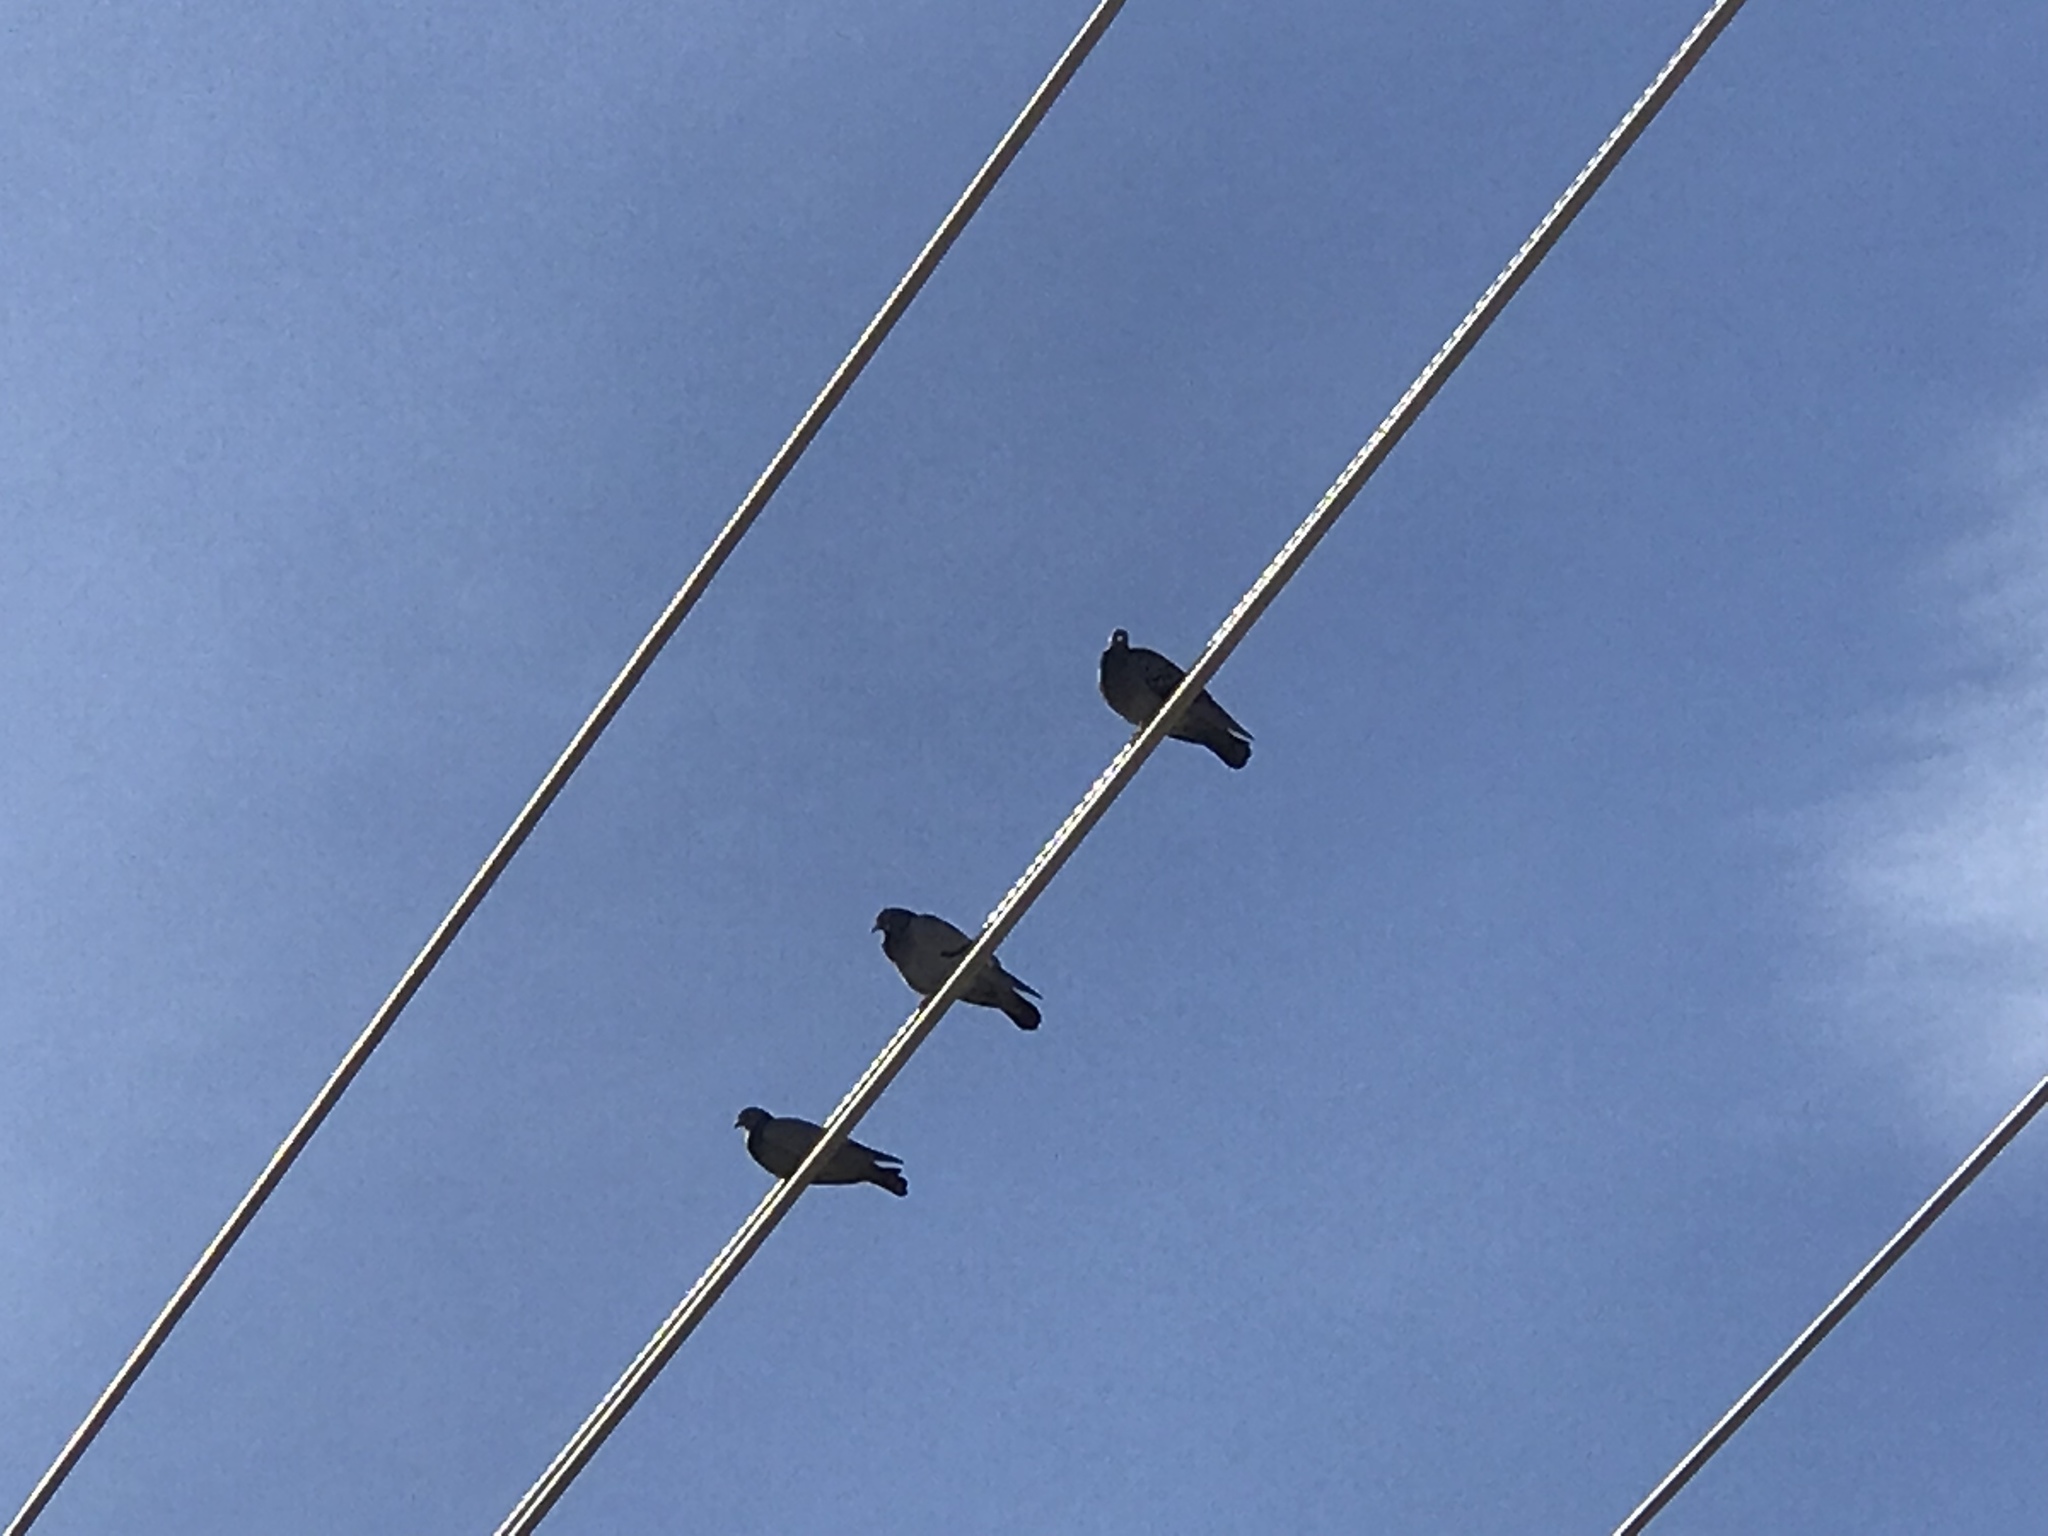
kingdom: Animalia
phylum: Chordata
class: Aves
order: Columbiformes
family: Columbidae
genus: Columba
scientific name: Columba livia
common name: Rock pigeon
